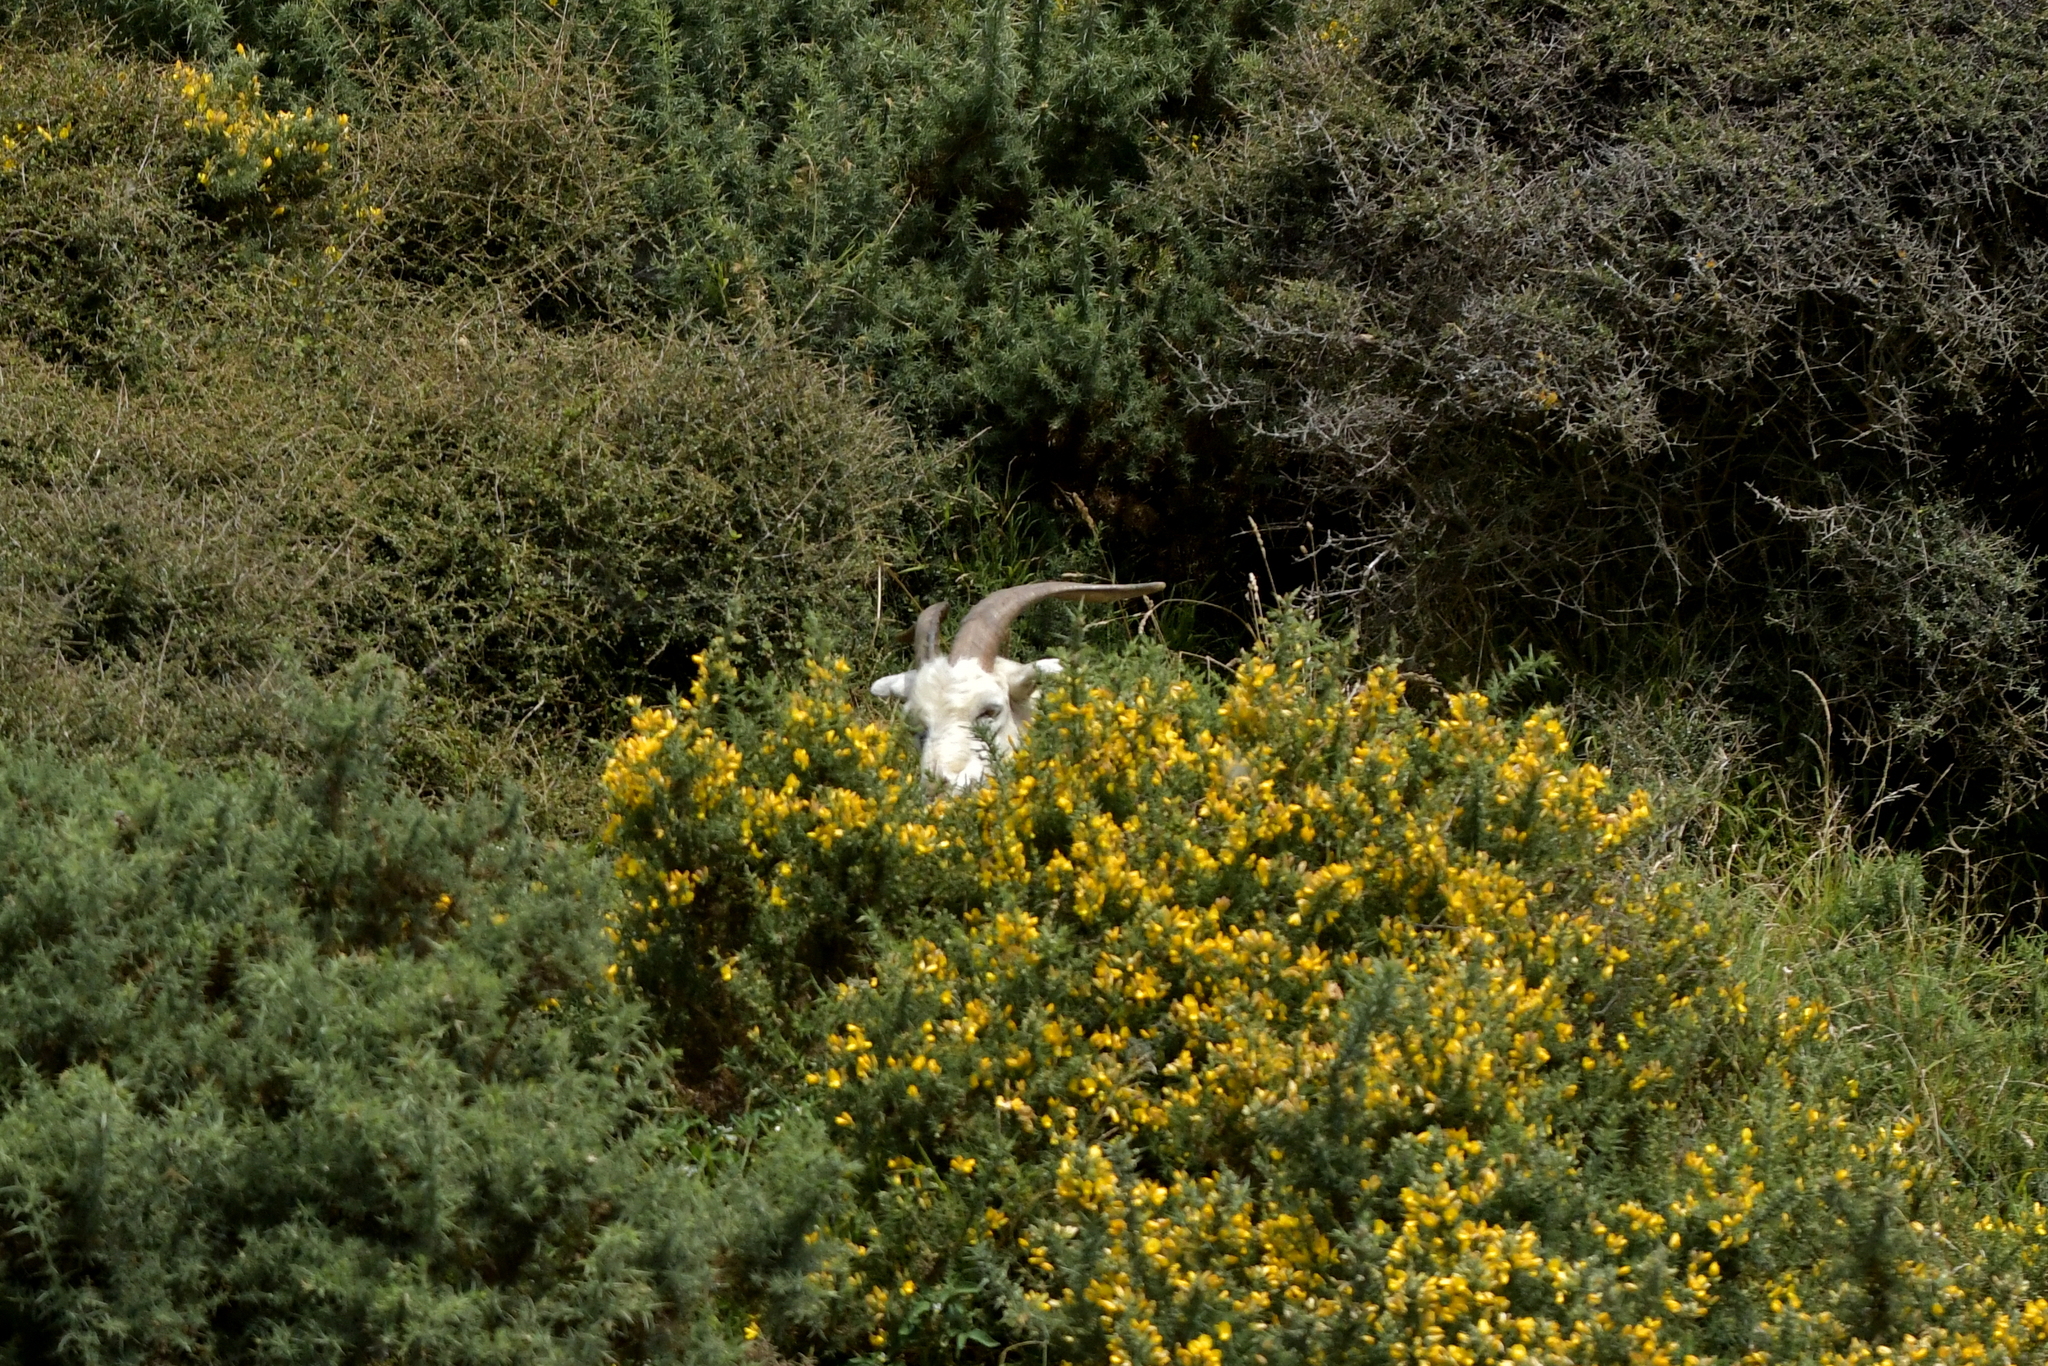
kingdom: Animalia
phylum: Chordata
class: Mammalia
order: Artiodactyla
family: Bovidae
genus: Capra
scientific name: Capra hircus
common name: Domestic goat
